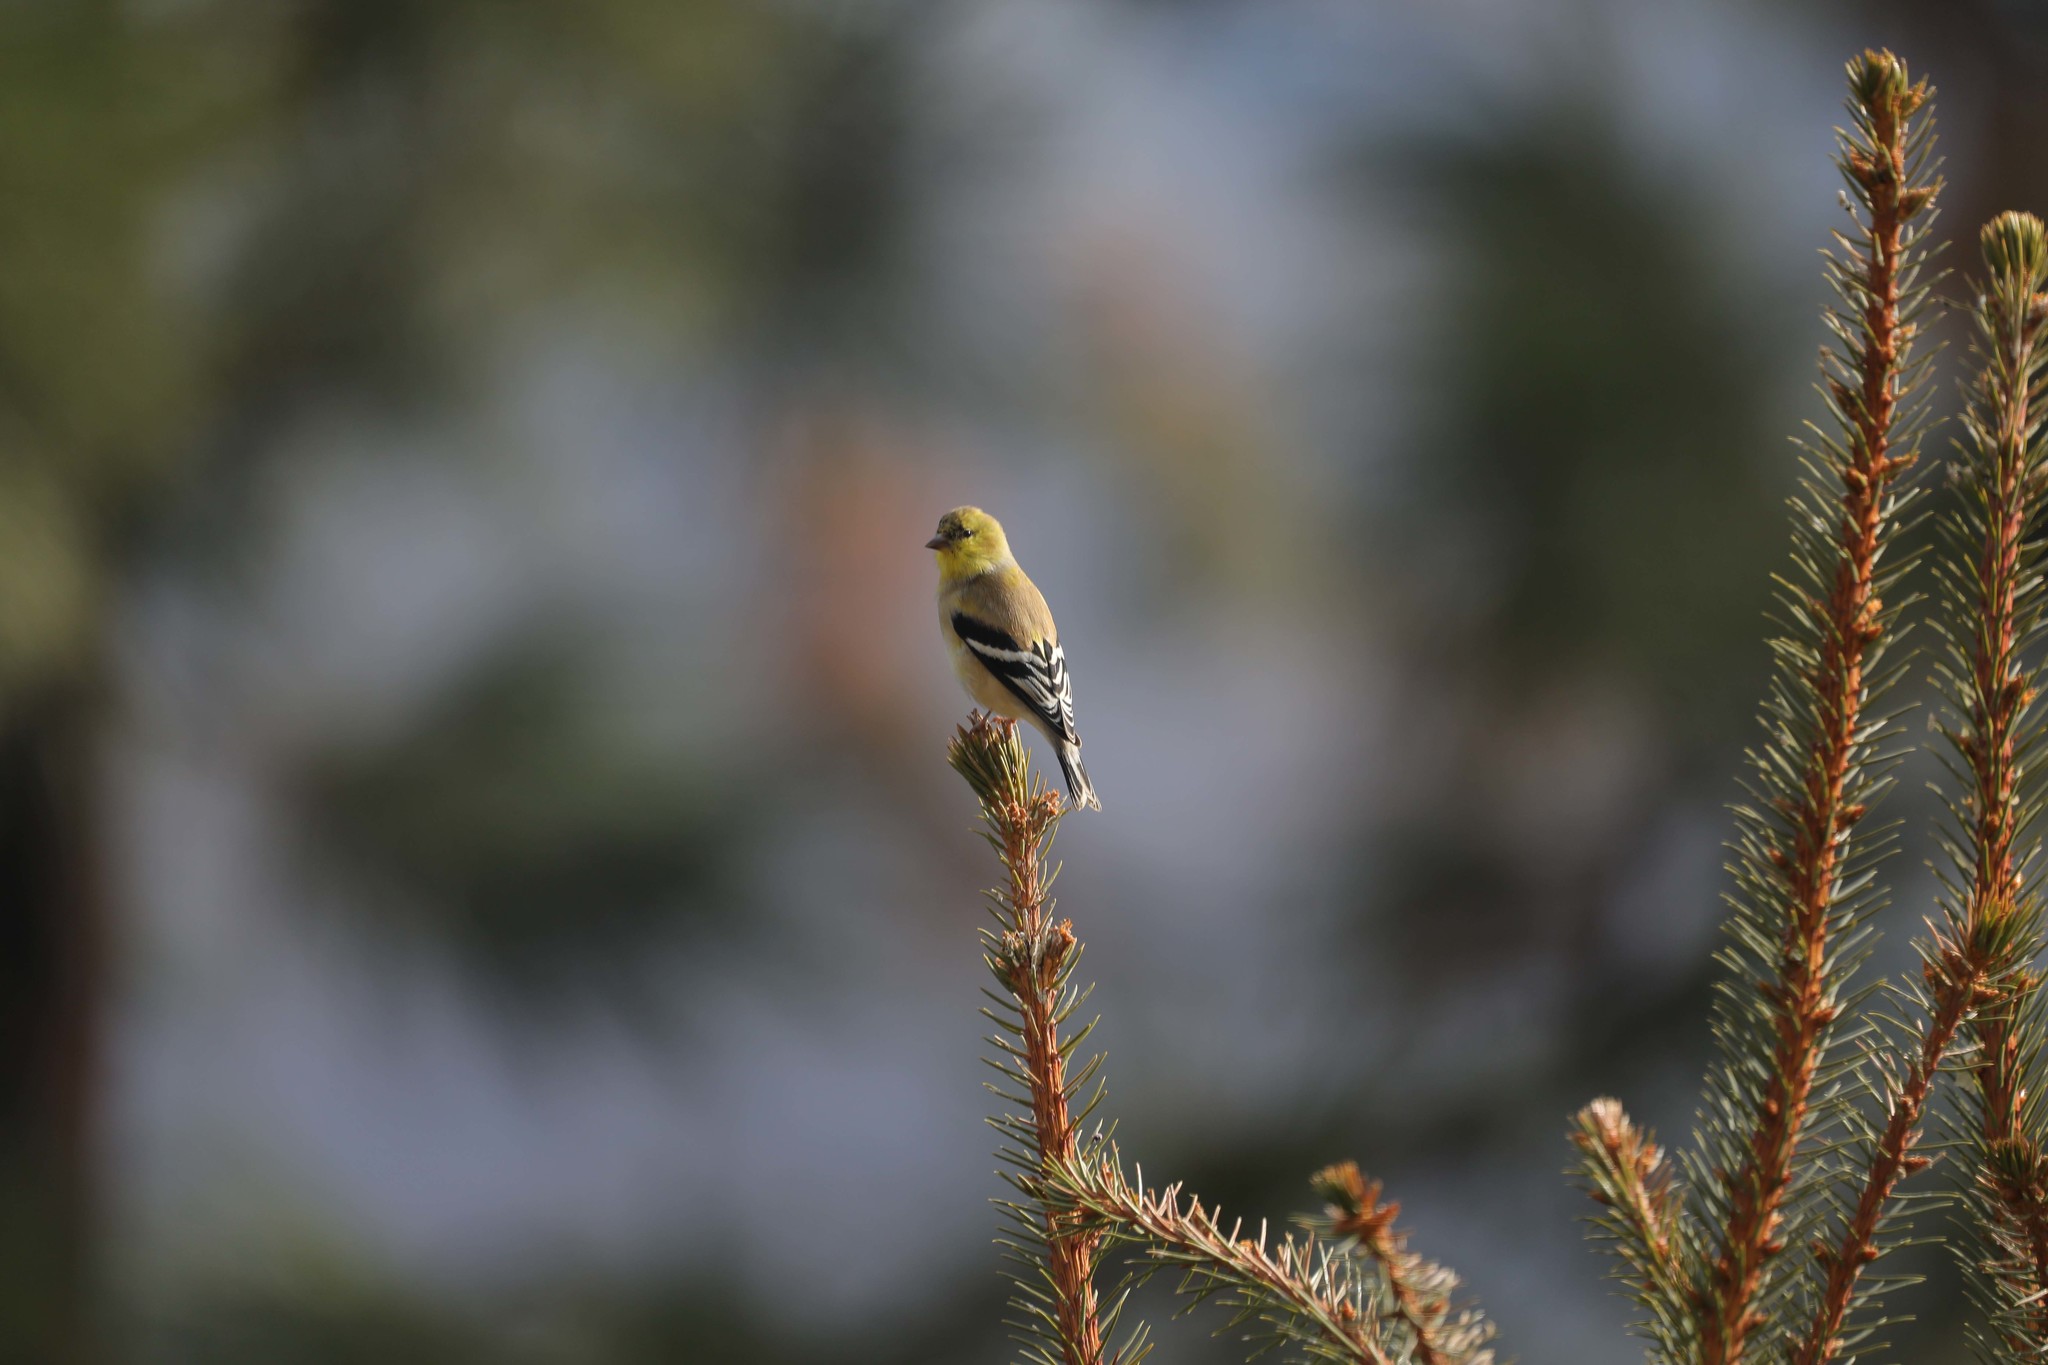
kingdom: Animalia
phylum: Chordata
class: Aves
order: Passeriformes
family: Fringillidae
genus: Spinus
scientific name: Spinus tristis
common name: American goldfinch
